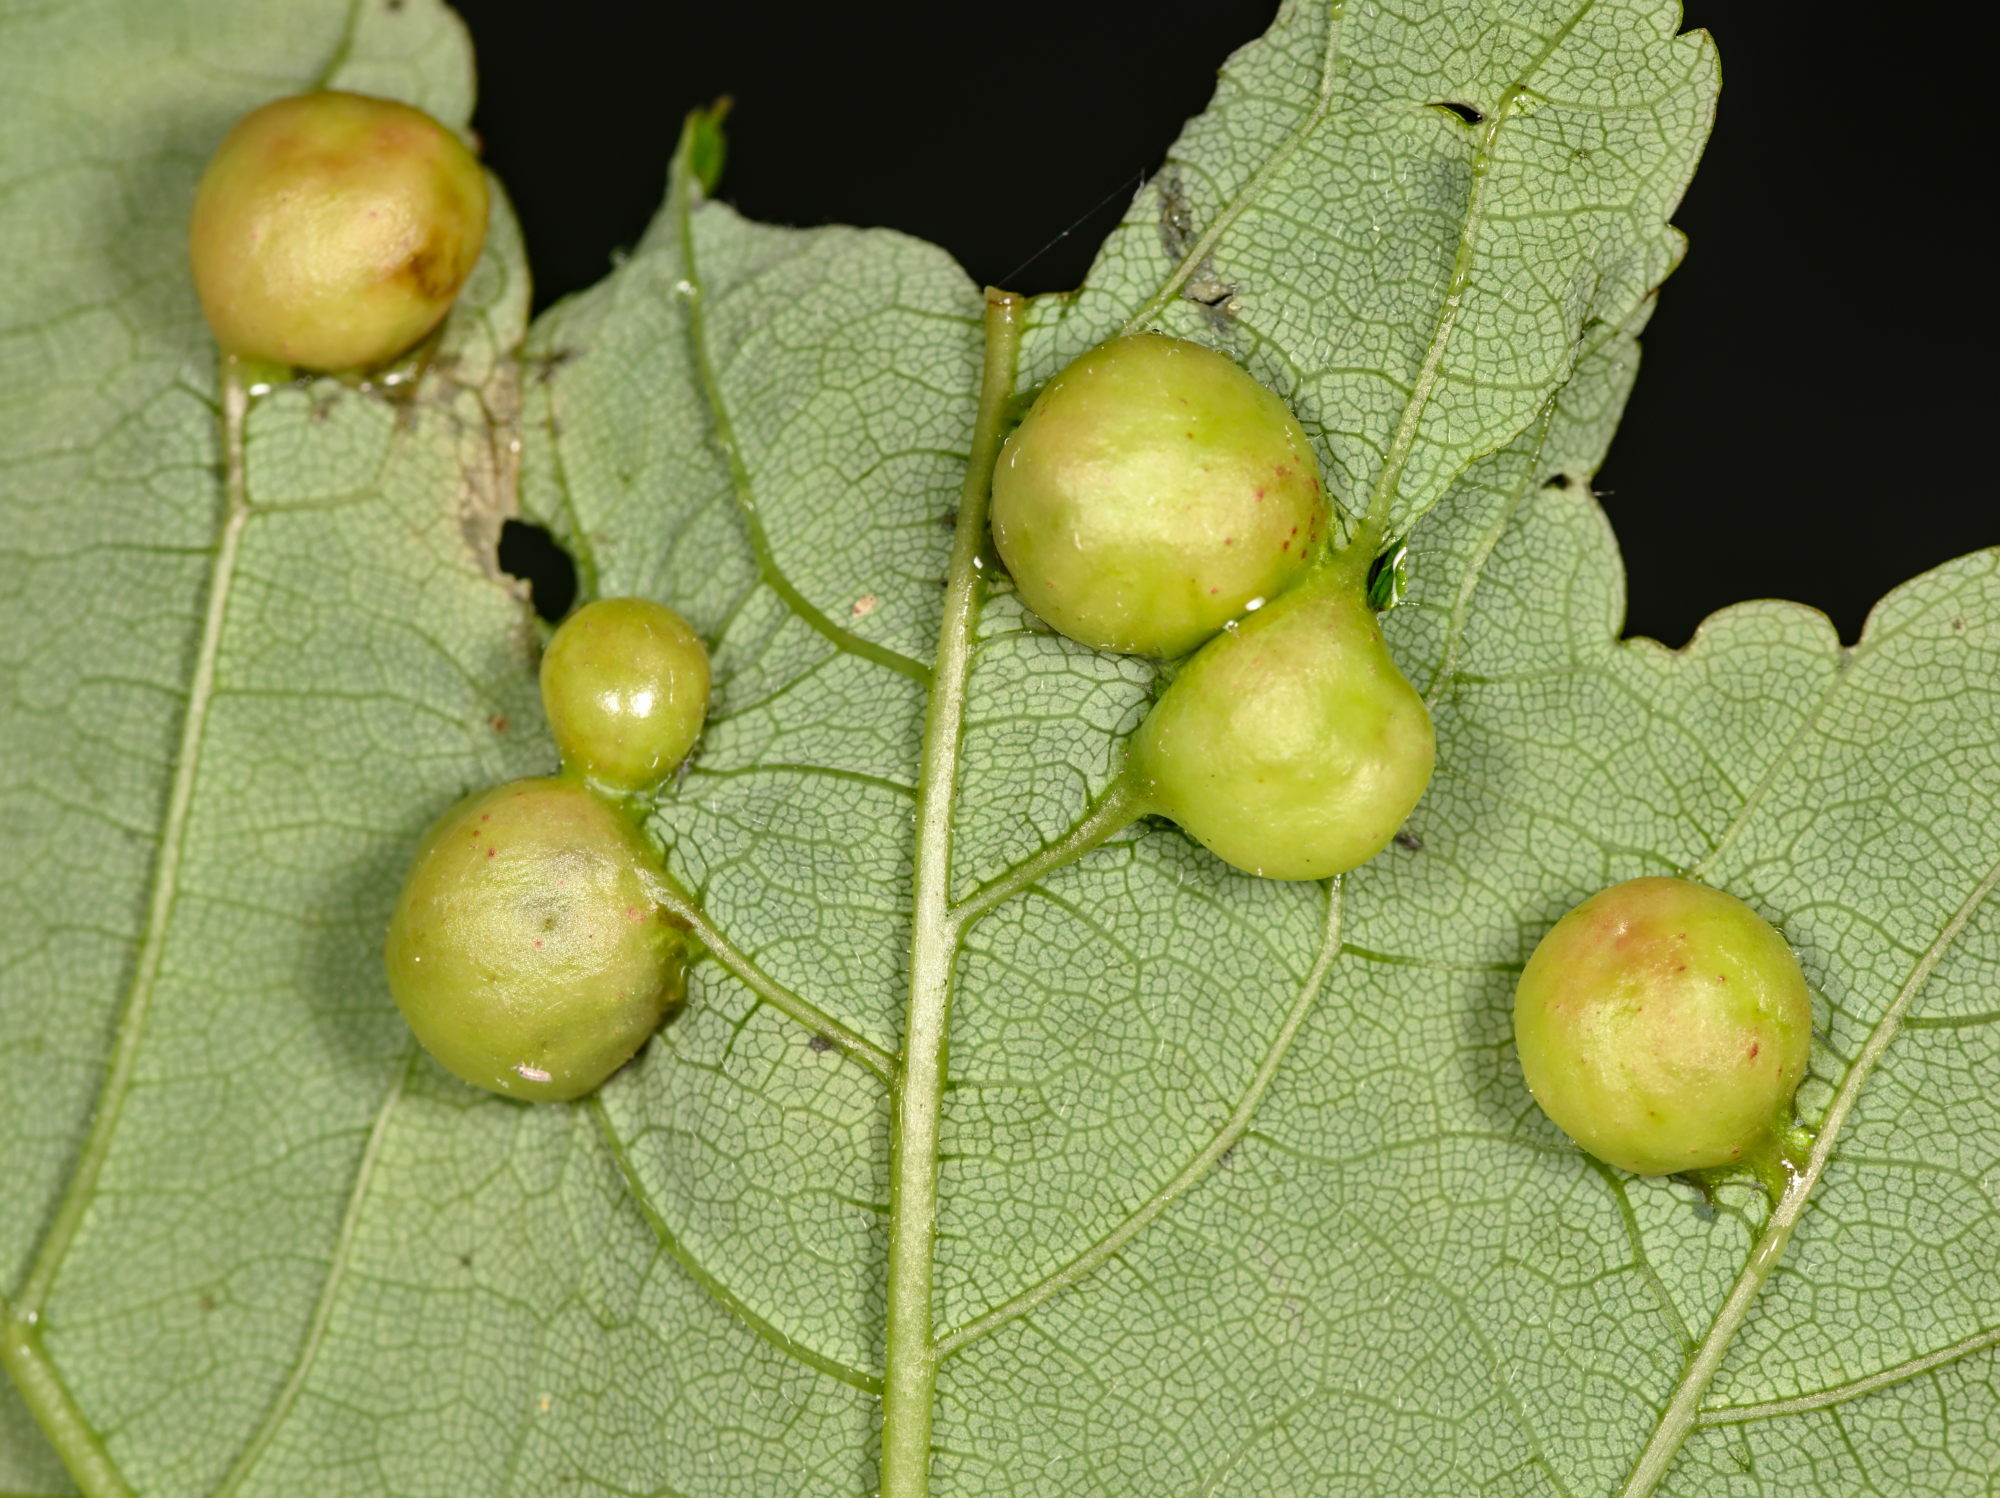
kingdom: Animalia
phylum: Arthropoda
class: Insecta
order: Hymenoptera
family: Cynipidae
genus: Pediaspis
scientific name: Pediaspis aceris
